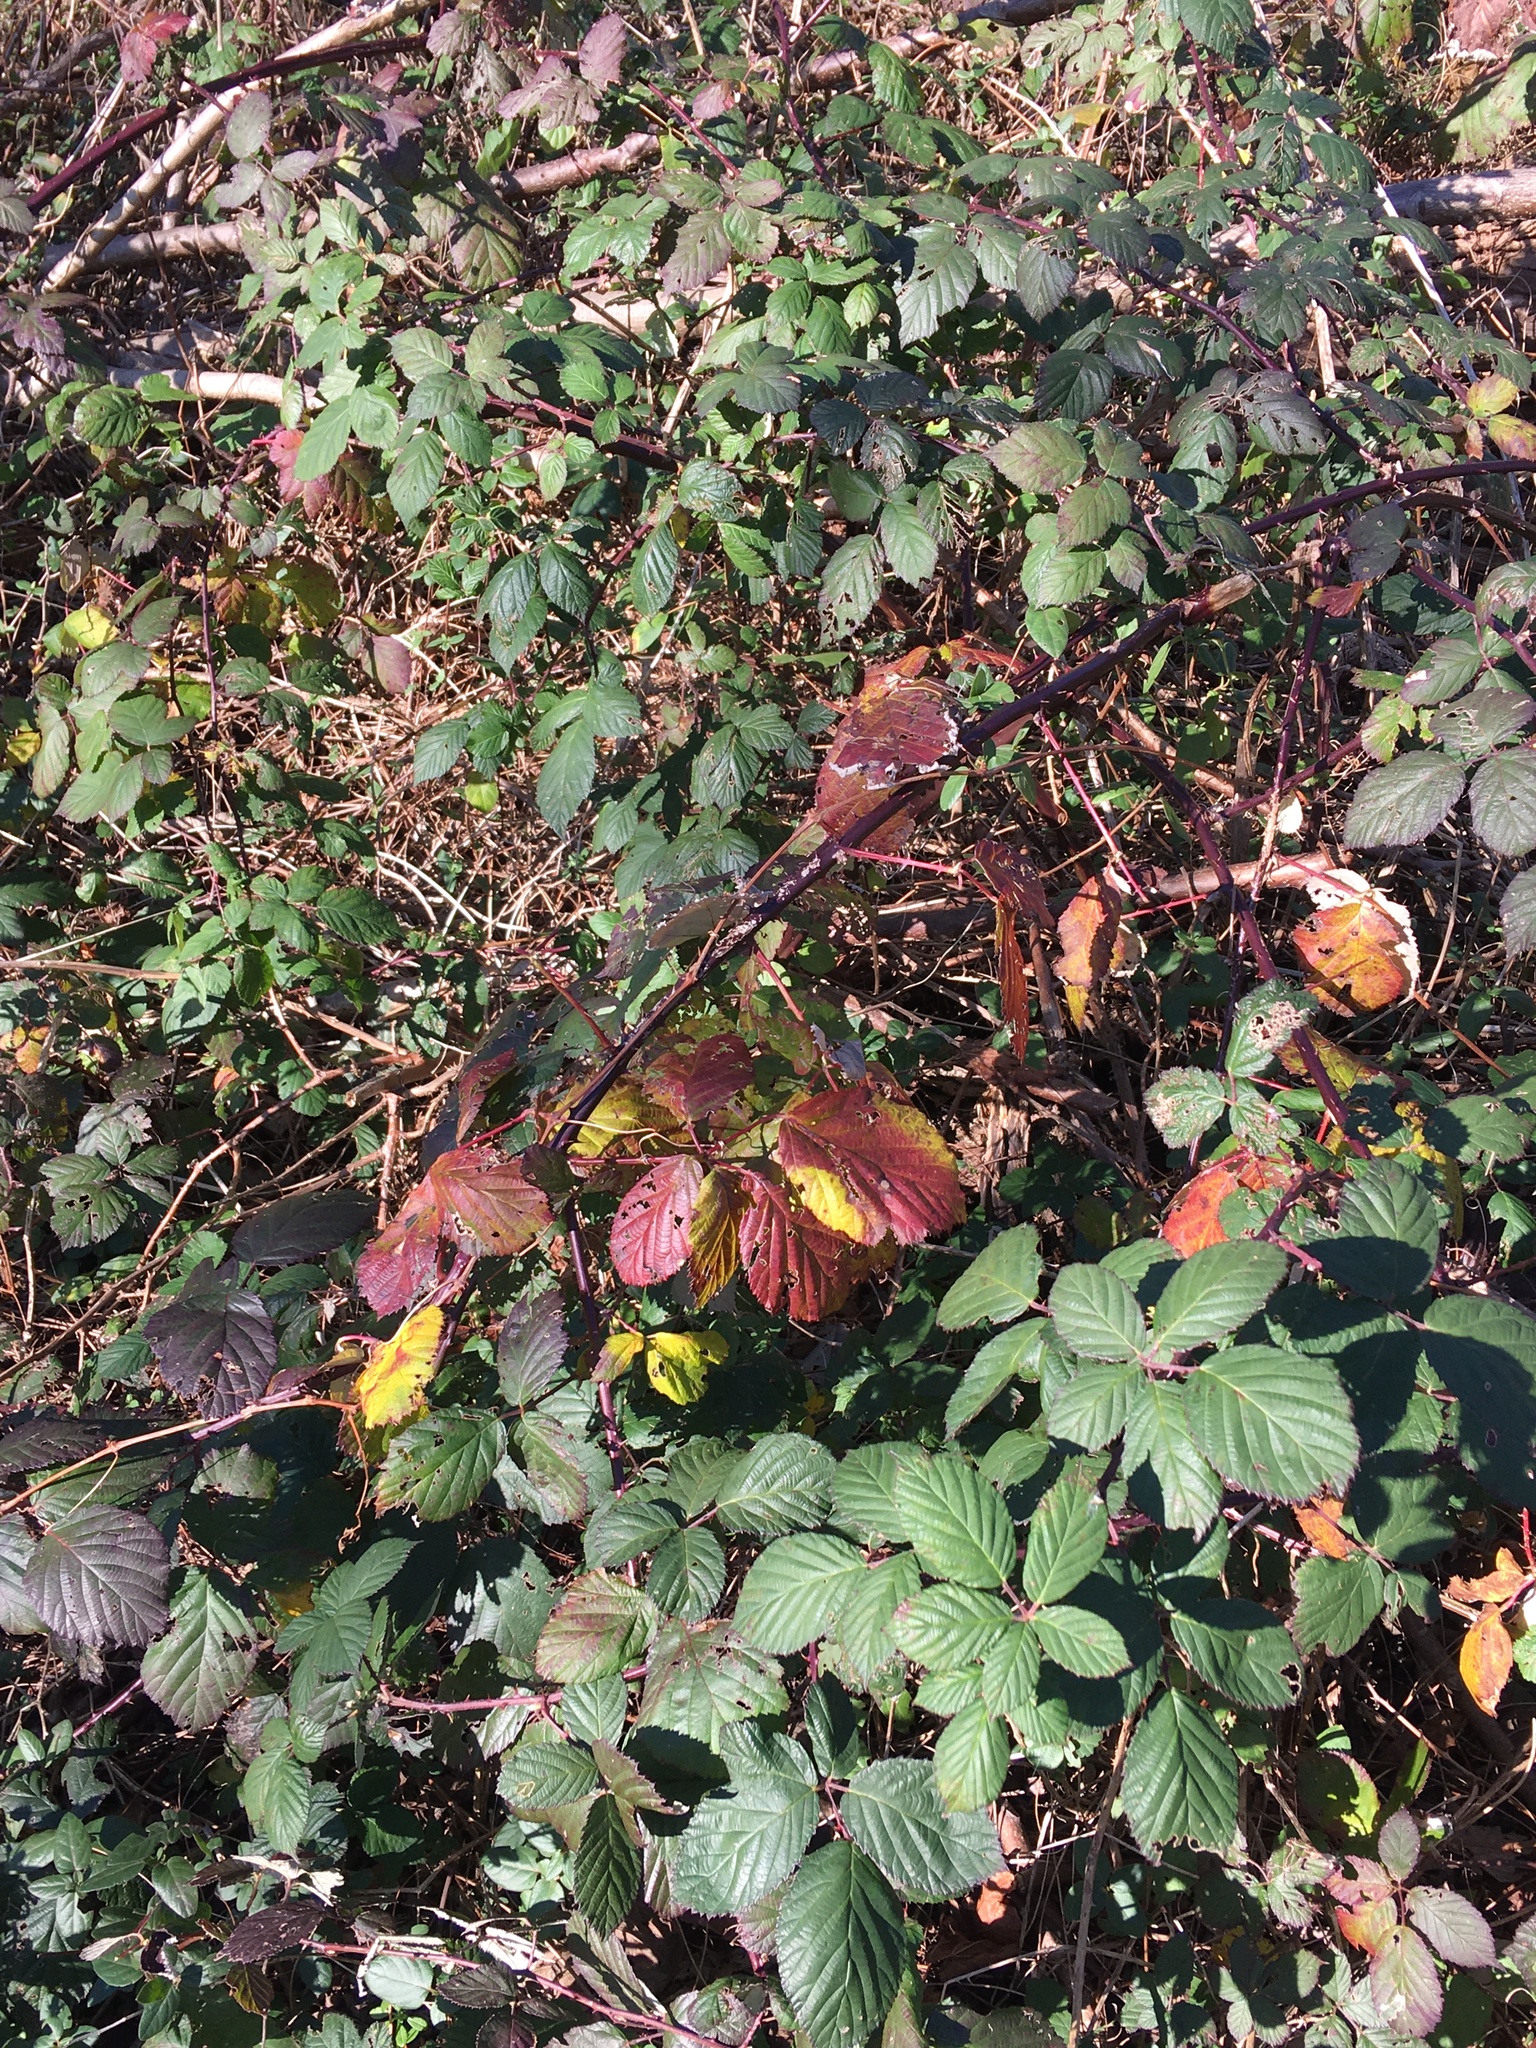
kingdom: Plantae
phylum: Tracheophyta
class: Magnoliopsida
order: Rosales
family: Rosaceae
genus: Rubus
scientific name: Rubus bifrons
